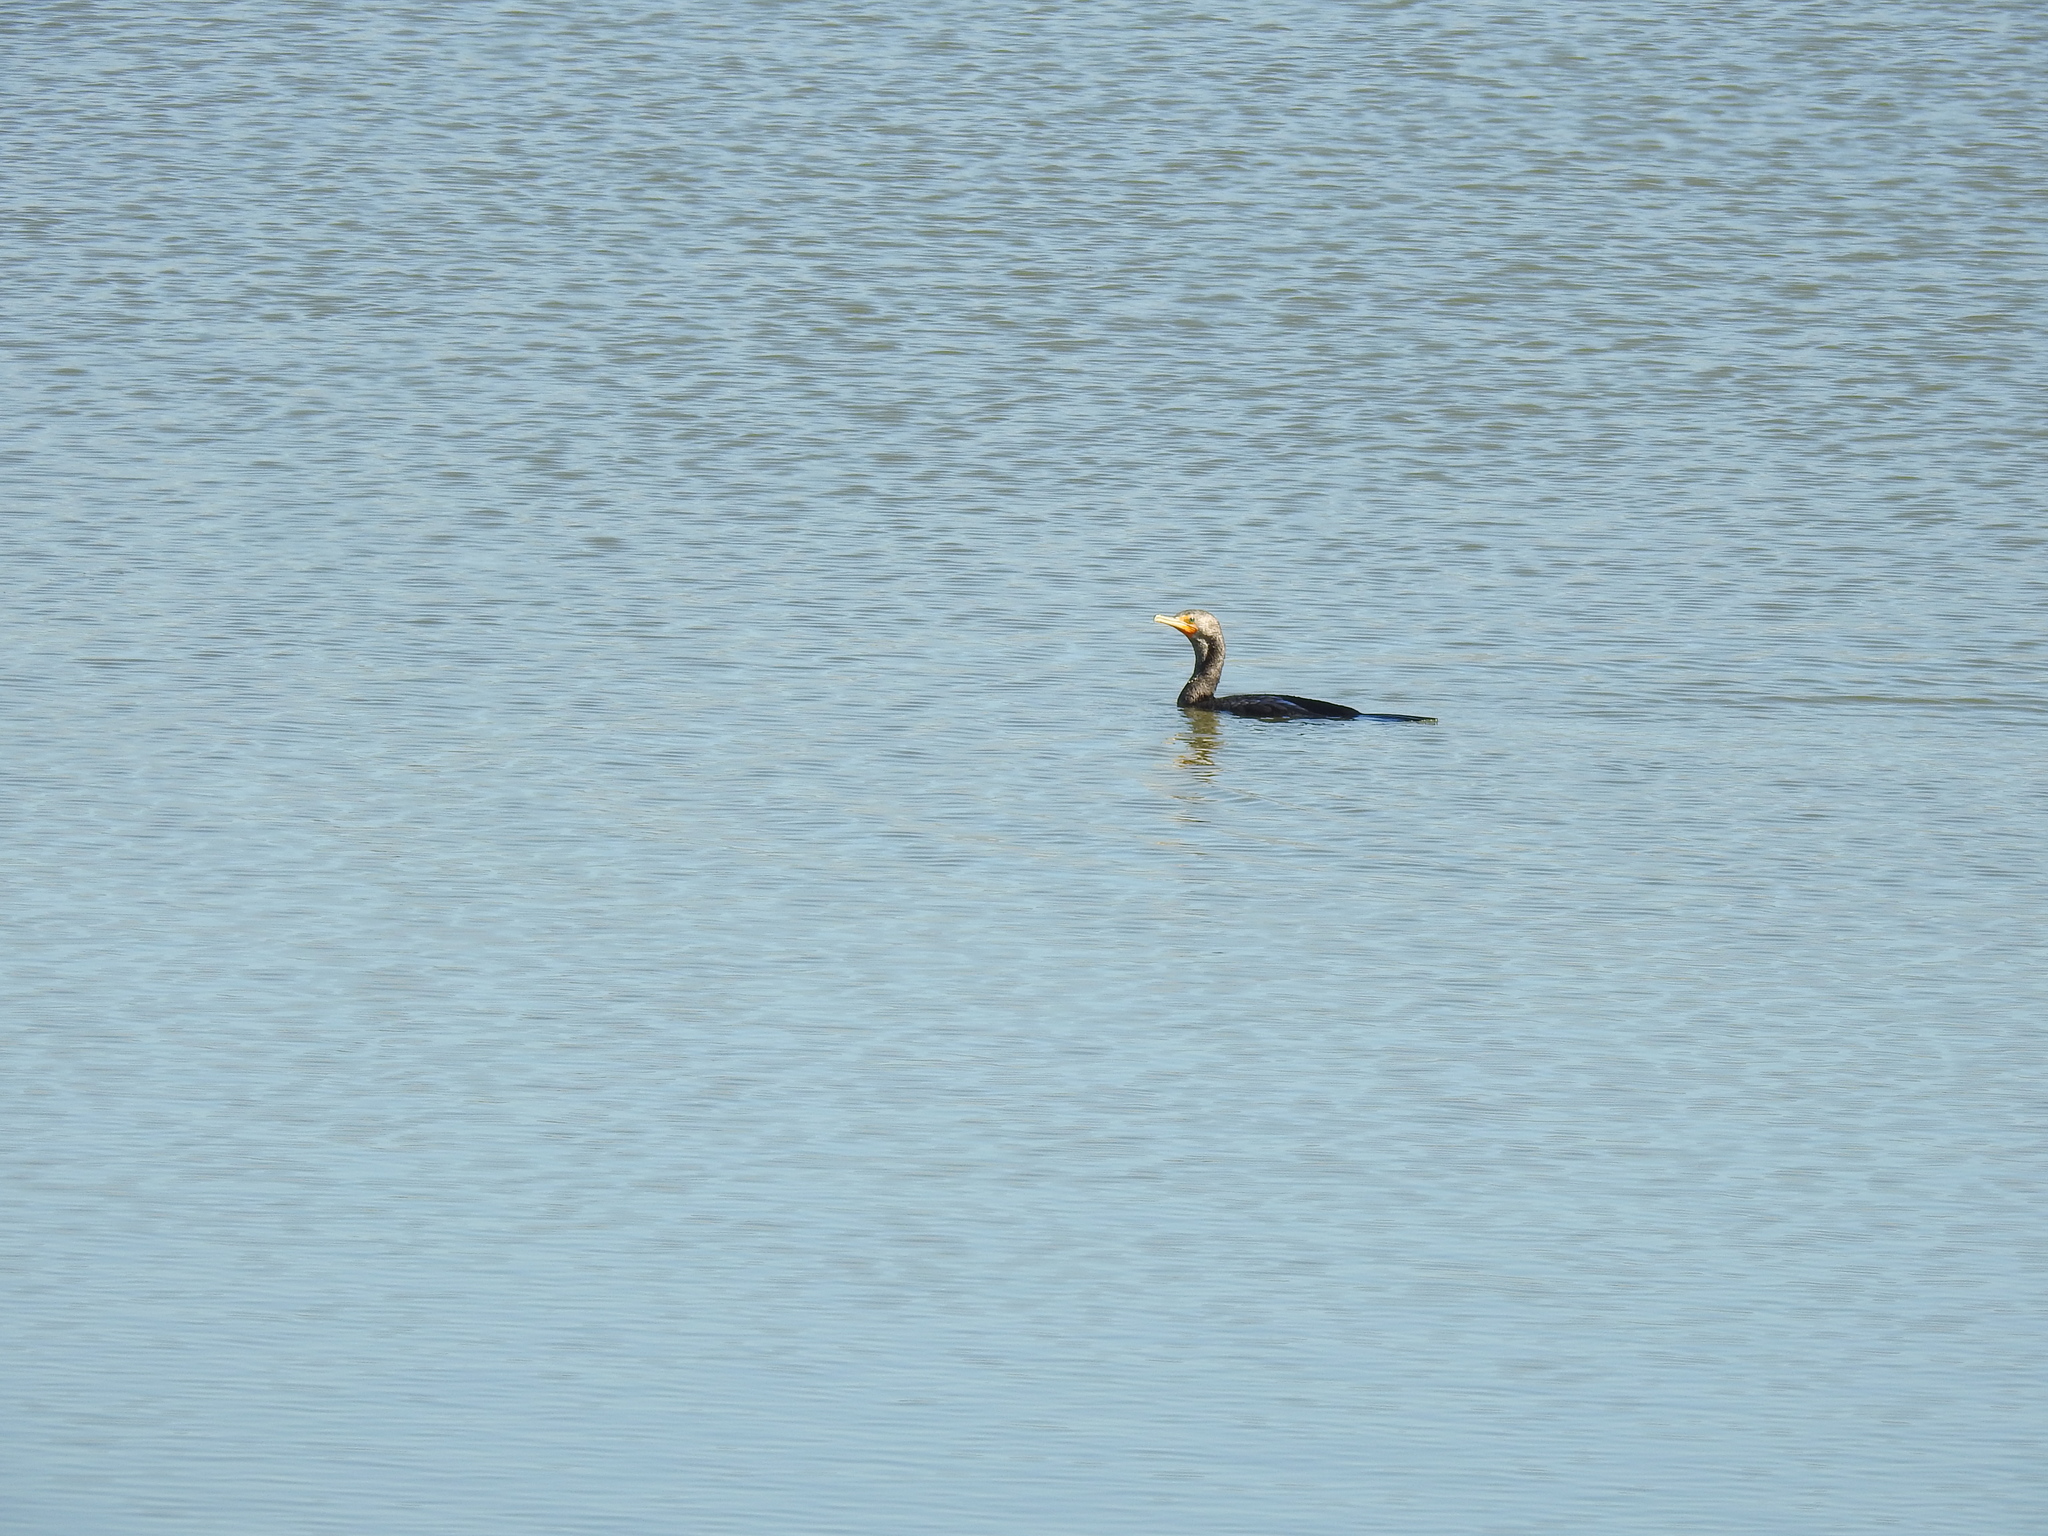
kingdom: Animalia
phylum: Chordata
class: Aves
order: Suliformes
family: Phalacrocoracidae
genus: Phalacrocorax
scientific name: Phalacrocorax auritus
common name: Double-crested cormorant
